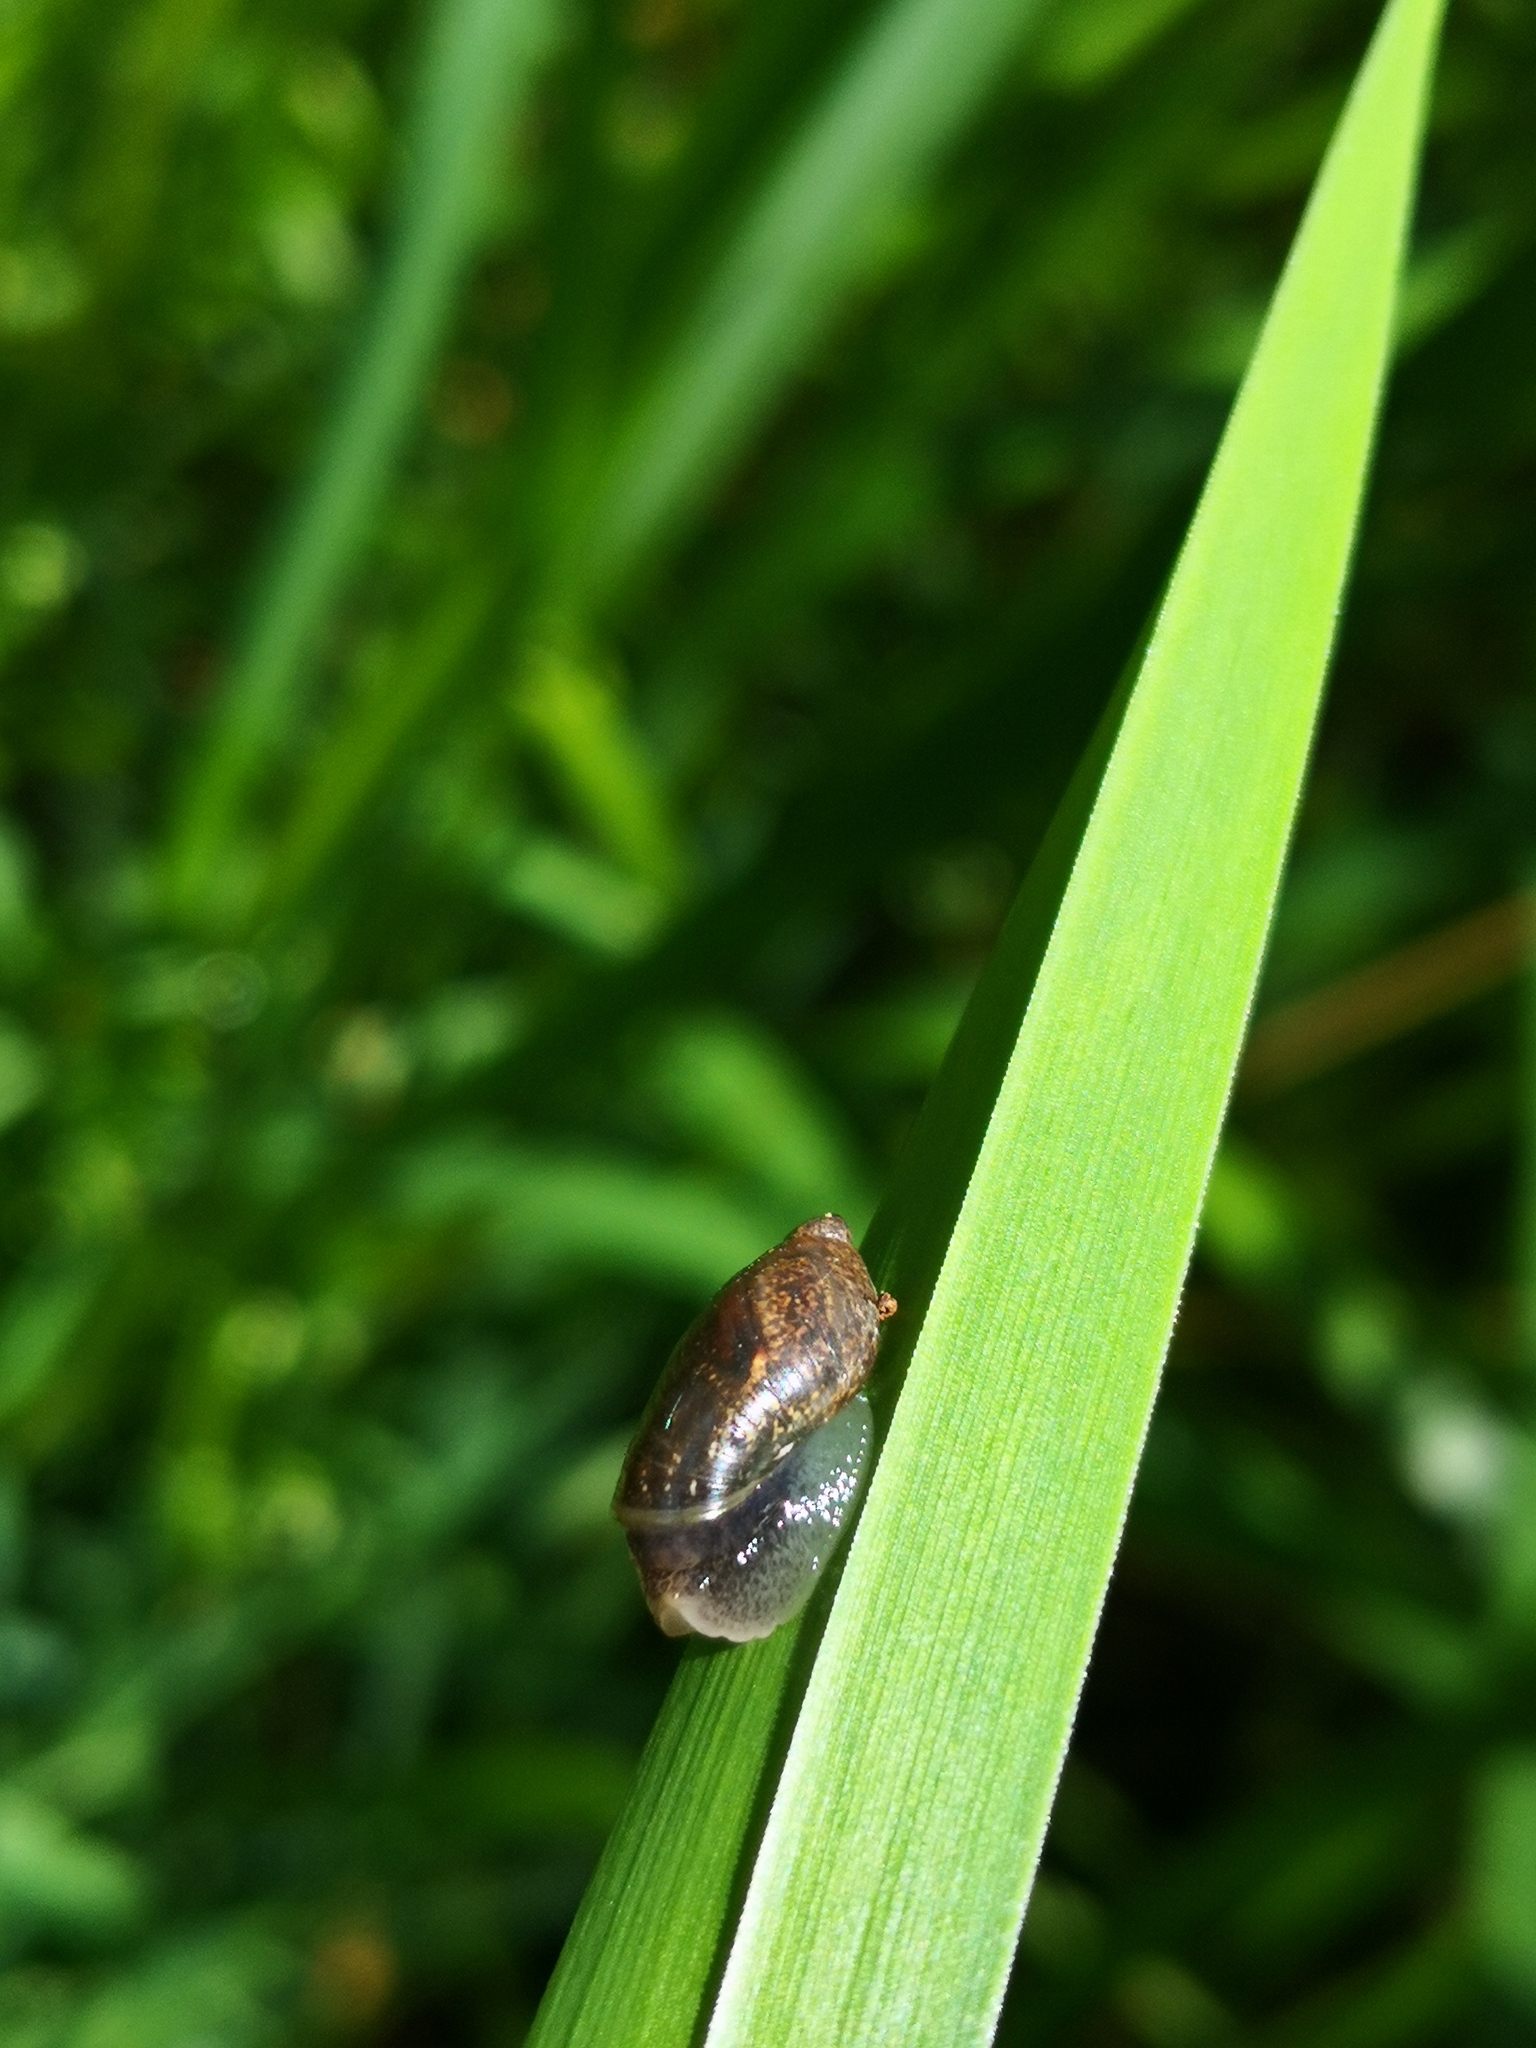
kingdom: Animalia
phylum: Mollusca
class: Gastropoda
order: Stylommatophora
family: Succineidae
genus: Succinea
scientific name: Succinea putris
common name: European ambersnail
